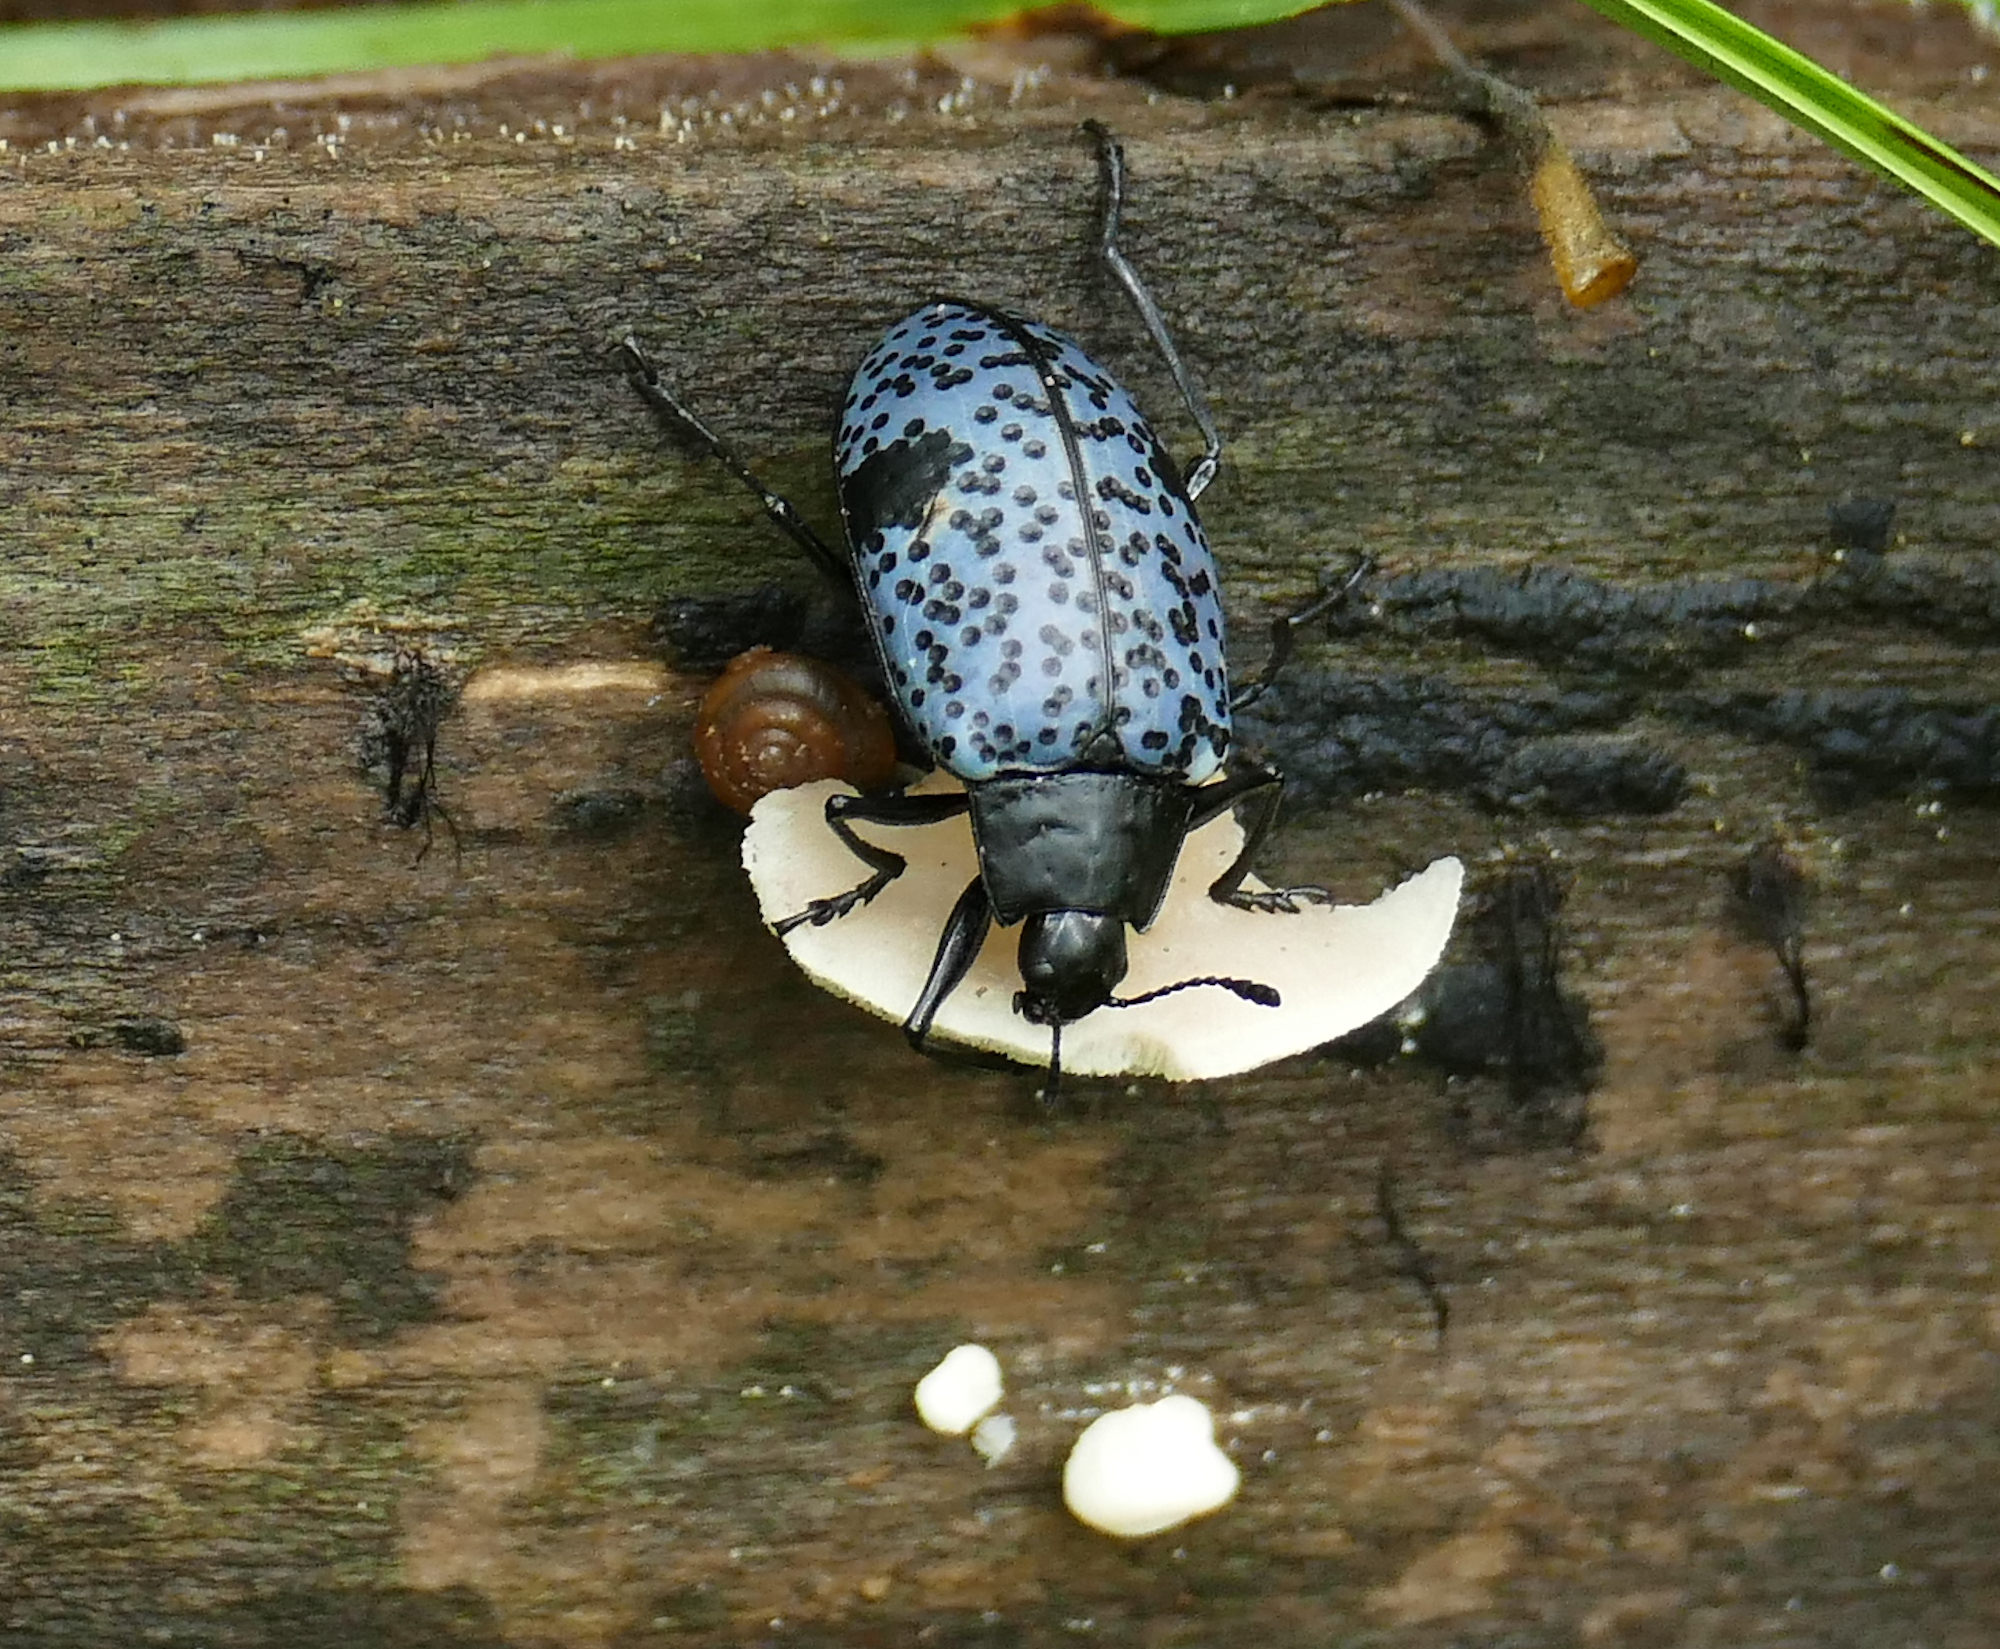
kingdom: Animalia
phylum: Arthropoda
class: Insecta
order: Coleoptera
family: Erotylidae
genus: Gibbifer
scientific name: Gibbifer californicus
